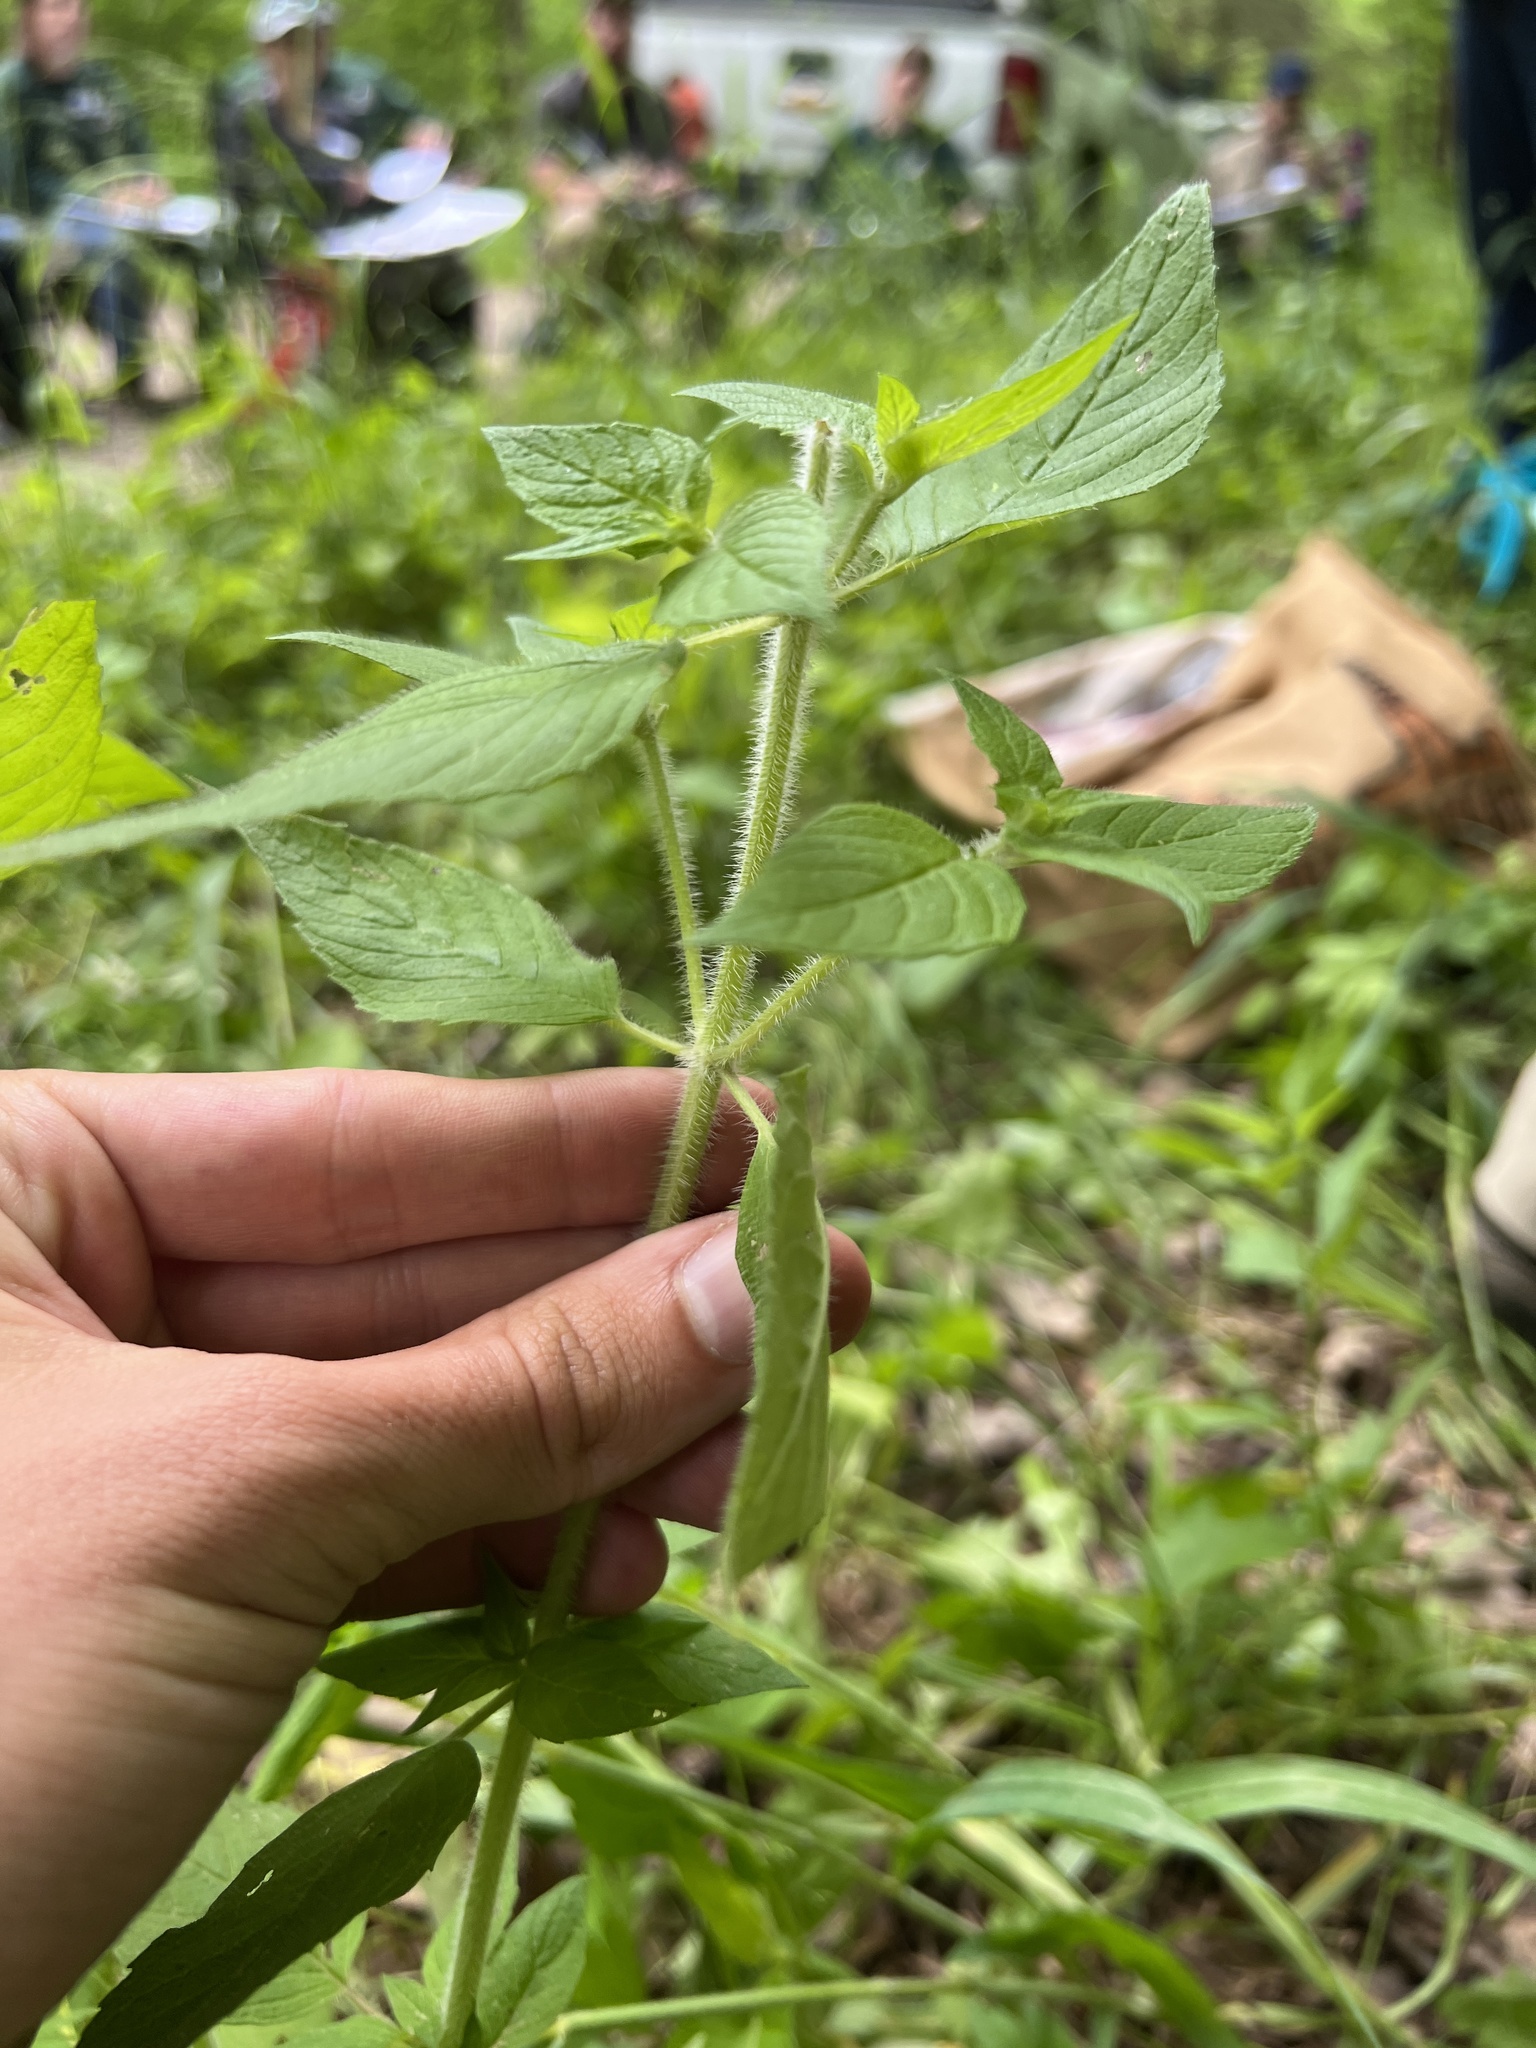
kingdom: Plantae
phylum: Tracheophyta
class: Magnoliopsida
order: Lamiales
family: Lamiaceae
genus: Blephilia
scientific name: Blephilia hirsuta
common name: Hairy blephilia
